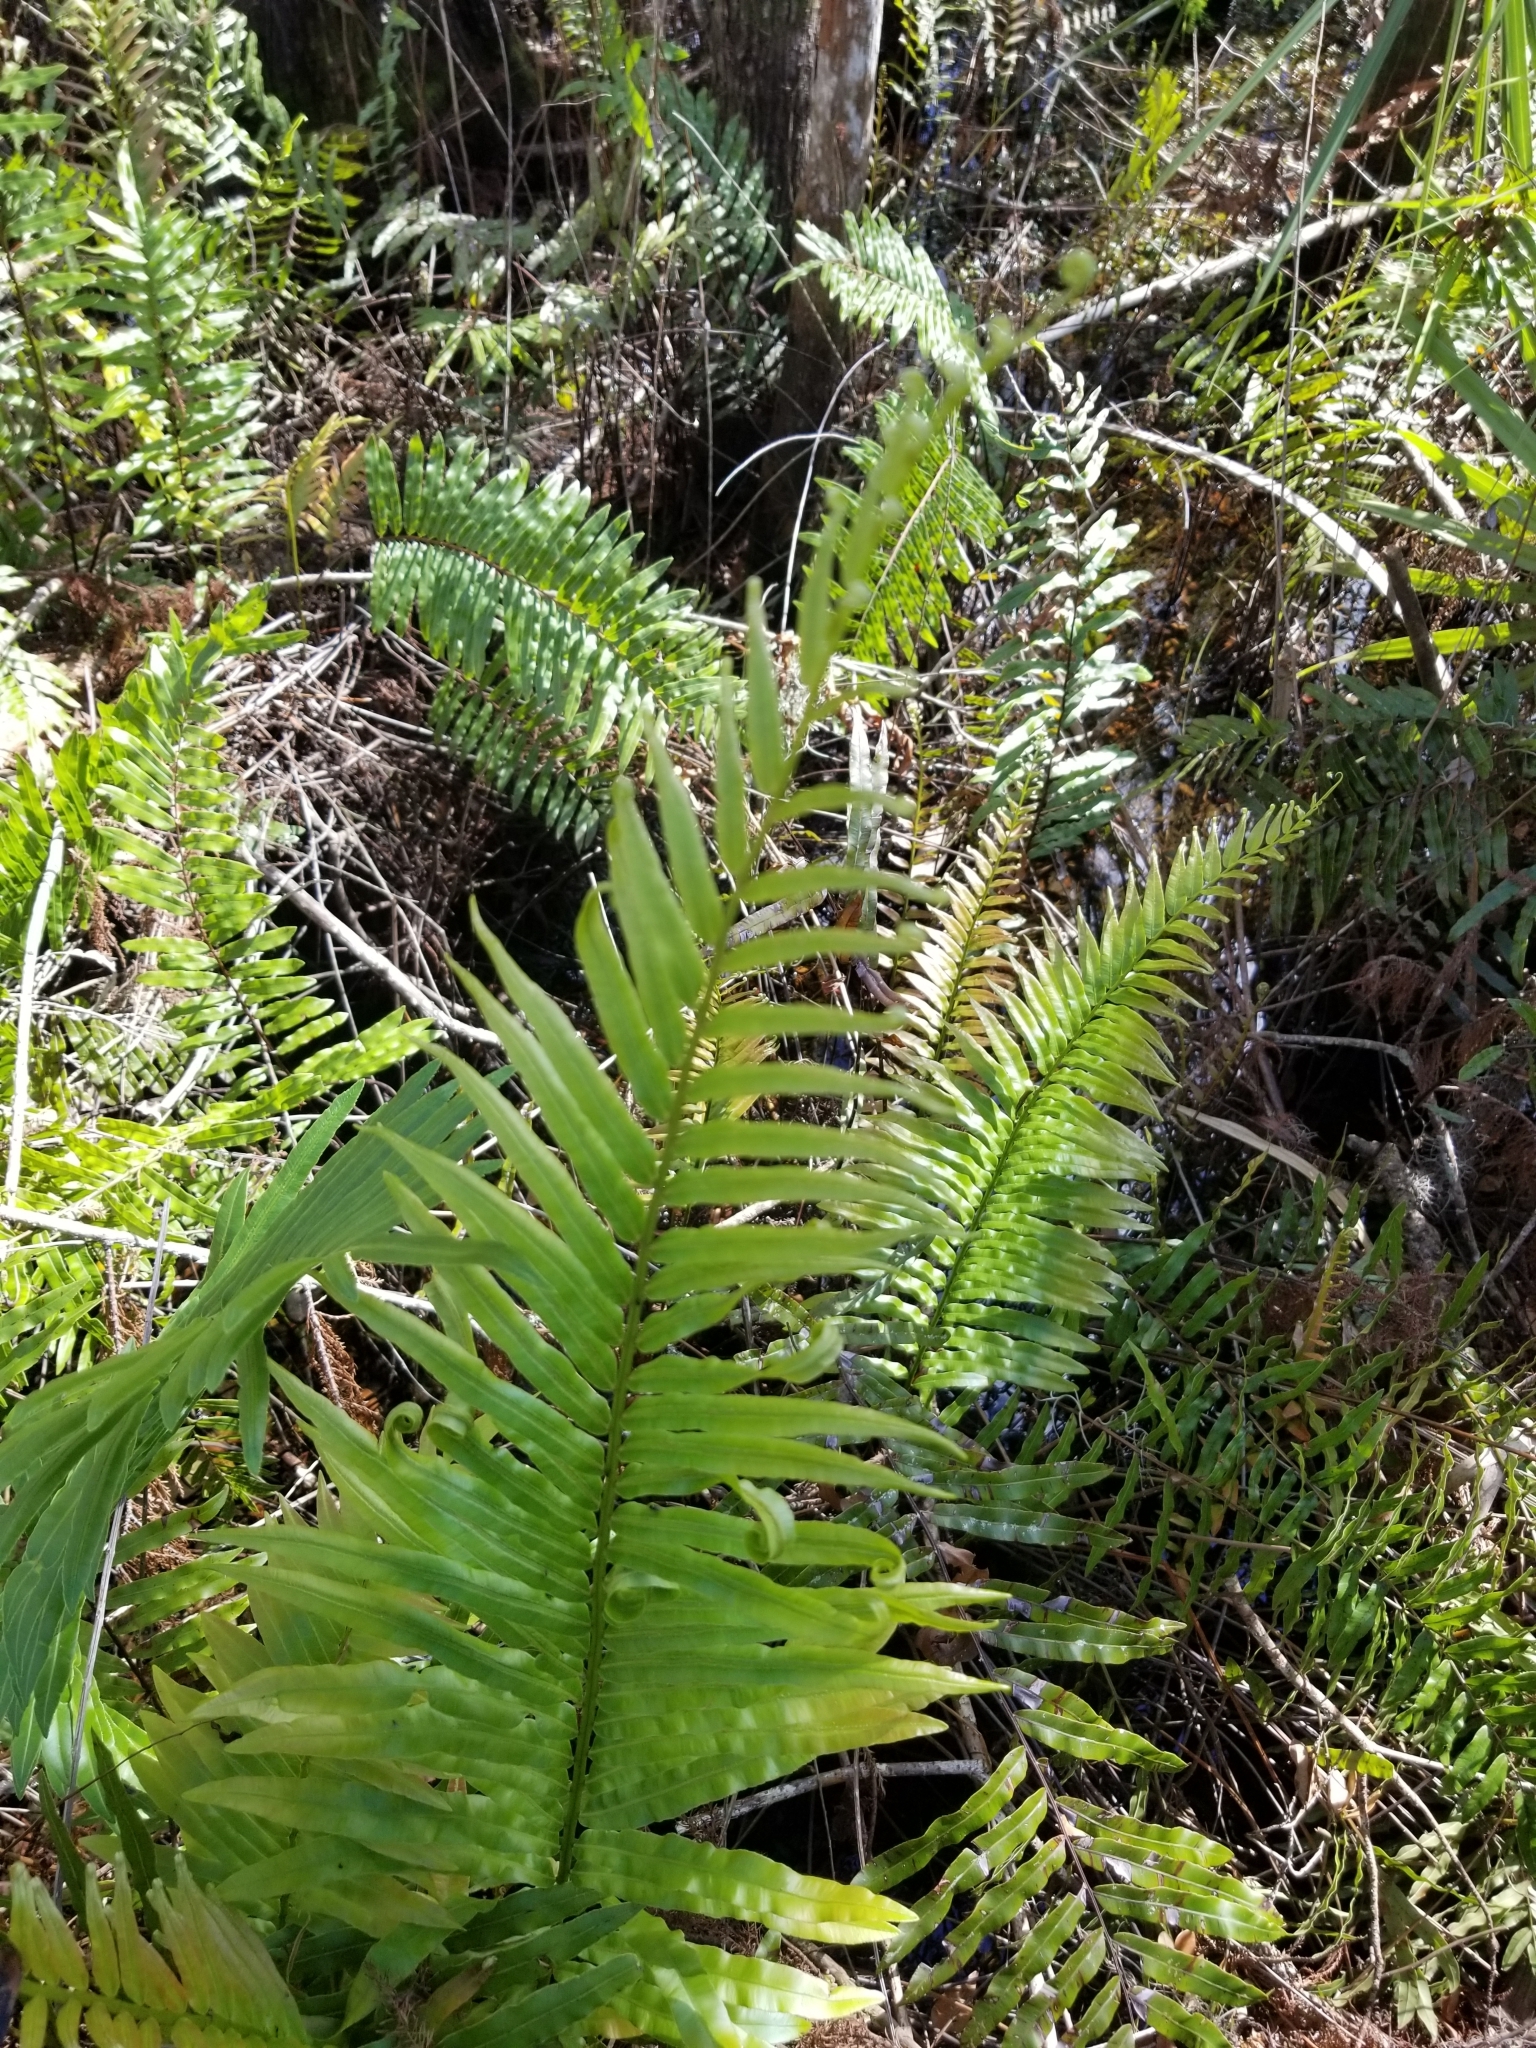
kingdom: Plantae
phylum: Tracheophyta
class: Polypodiopsida
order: Polypodiales
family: Blechnaceae
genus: Telmatoblechnum
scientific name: Telmatoblechnum serrulatum
